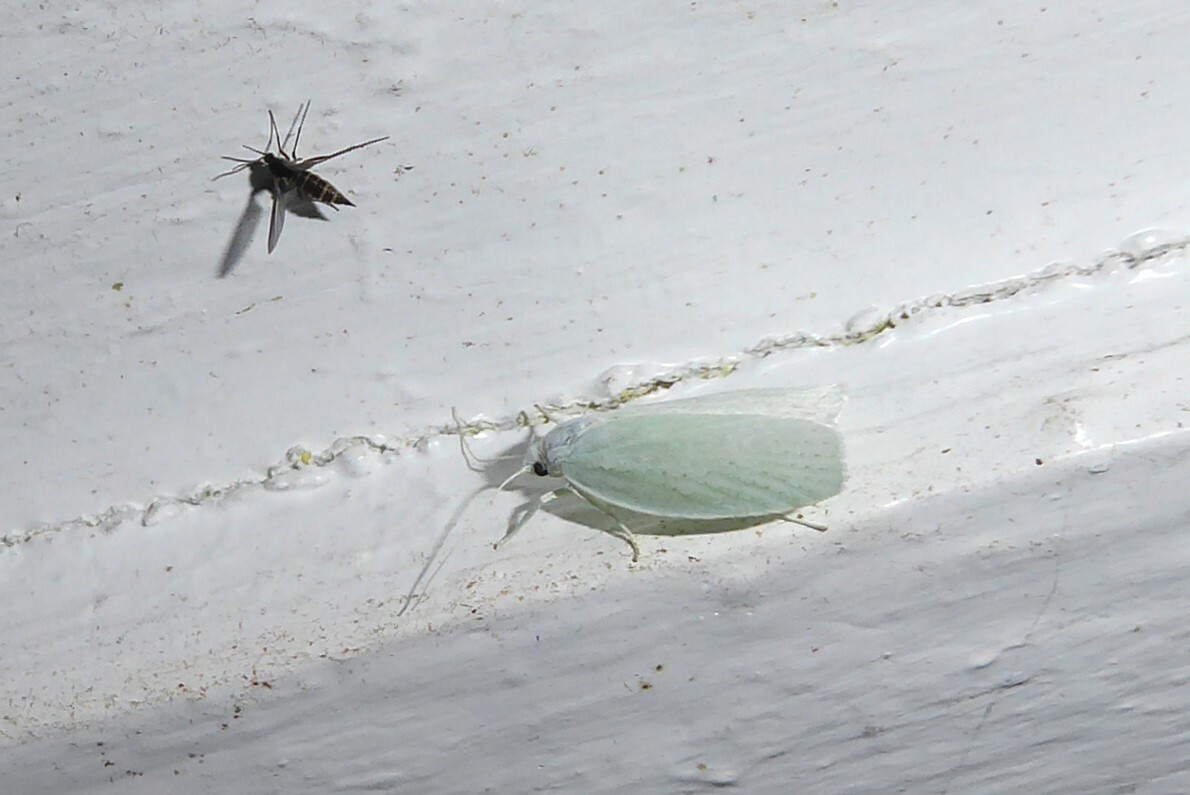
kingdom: Animalia
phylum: Arthropoda
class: Insecta
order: Lepidoptera
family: Oecophoridae
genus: Nymphostola
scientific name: Nymphostola galactina
